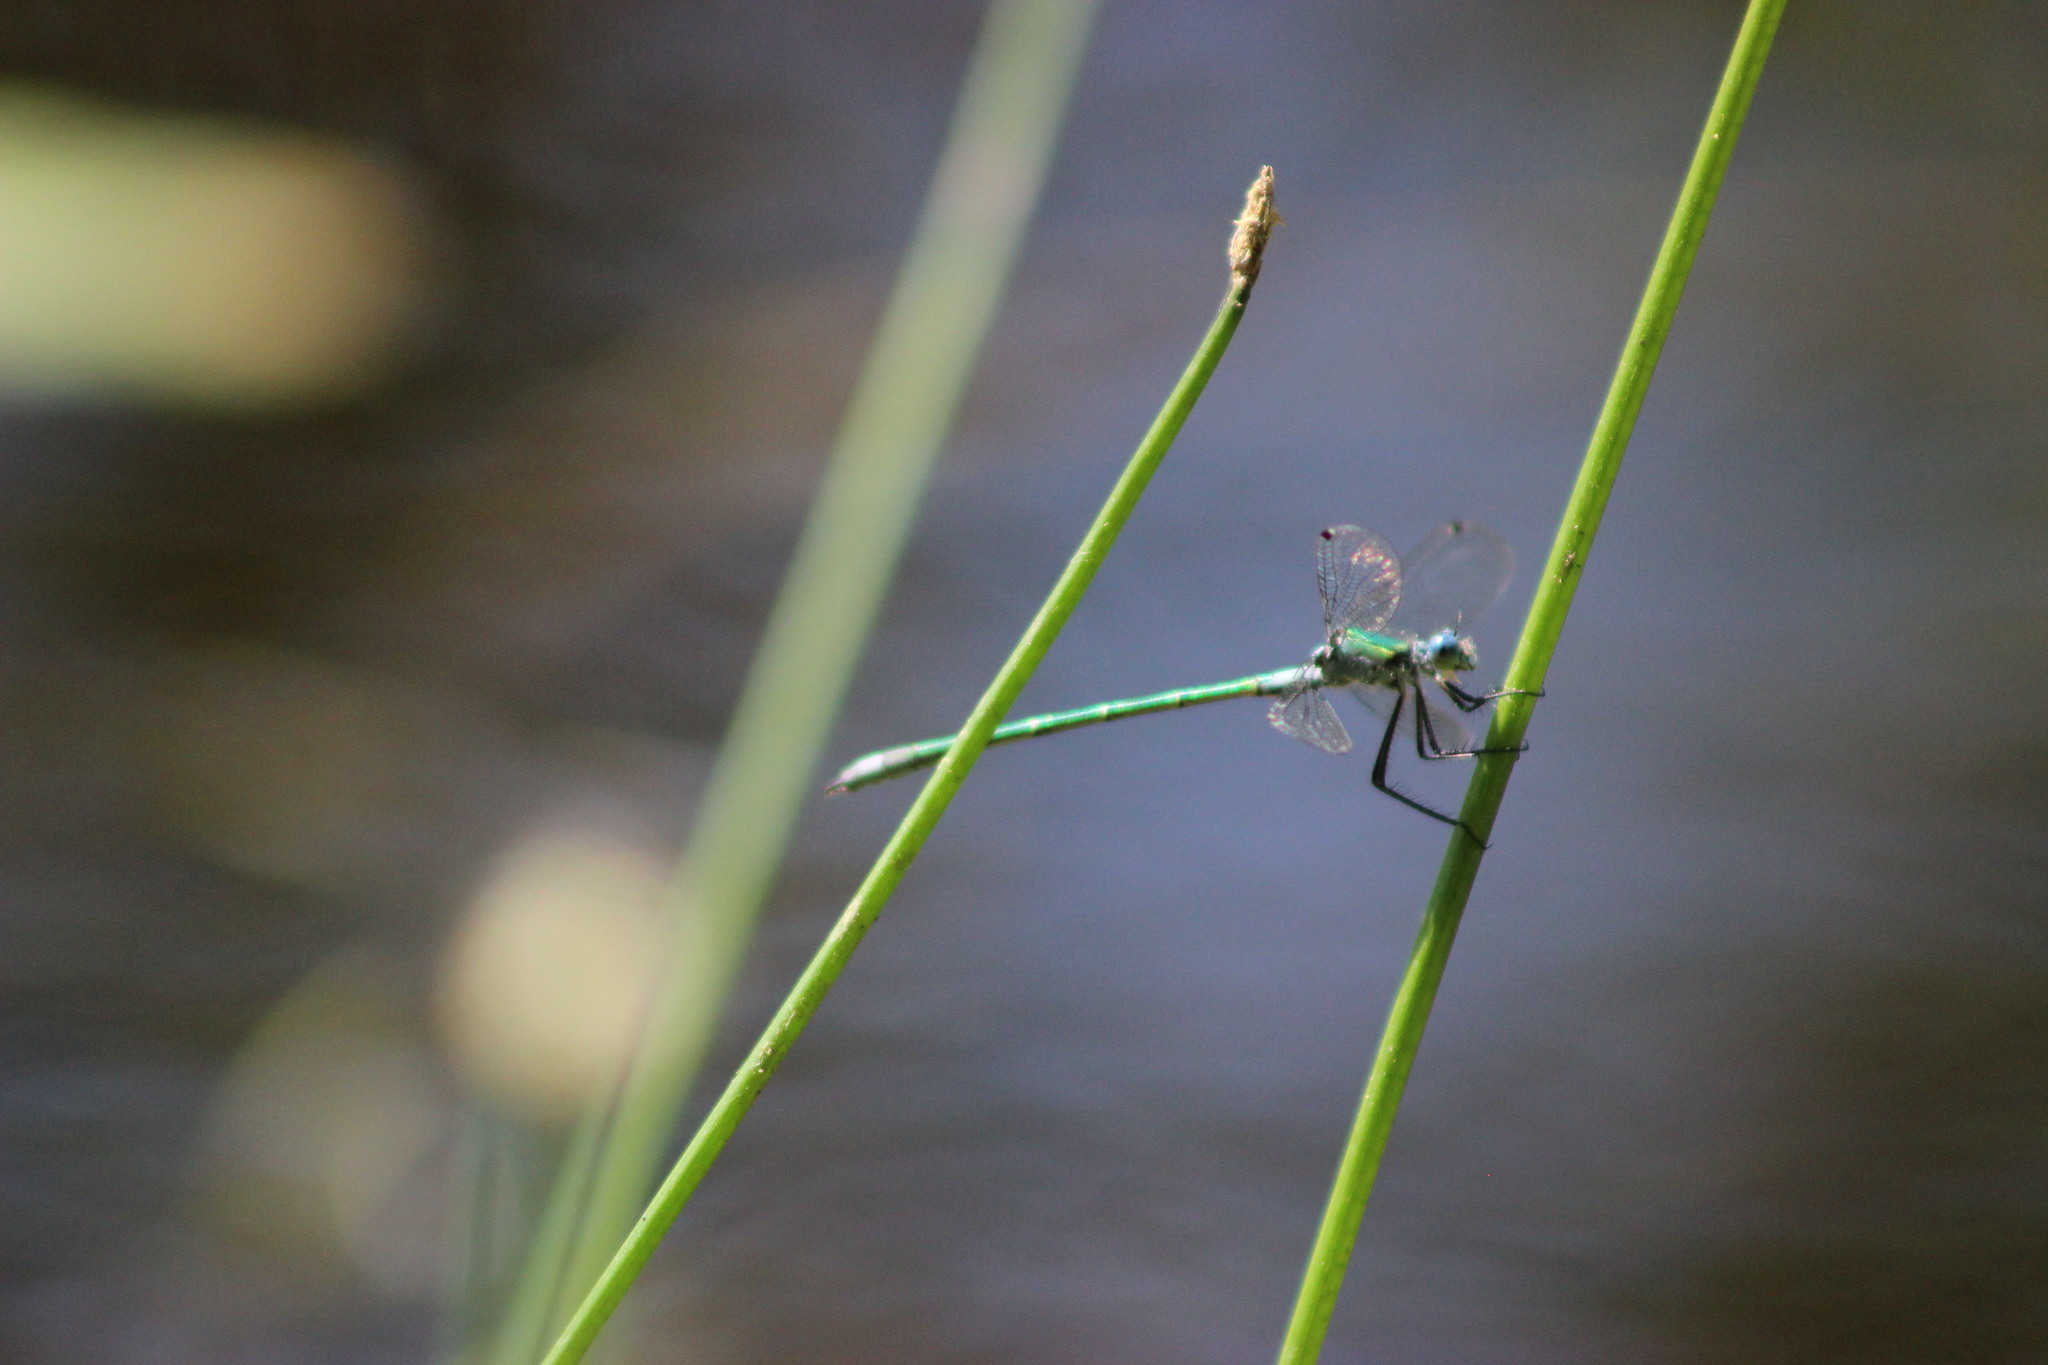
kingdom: Animalia
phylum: Arthropoda
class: Insecta
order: Odonata
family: Lestidae
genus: Lestes
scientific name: Lestes dryas
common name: Scarce emerald damselfly
